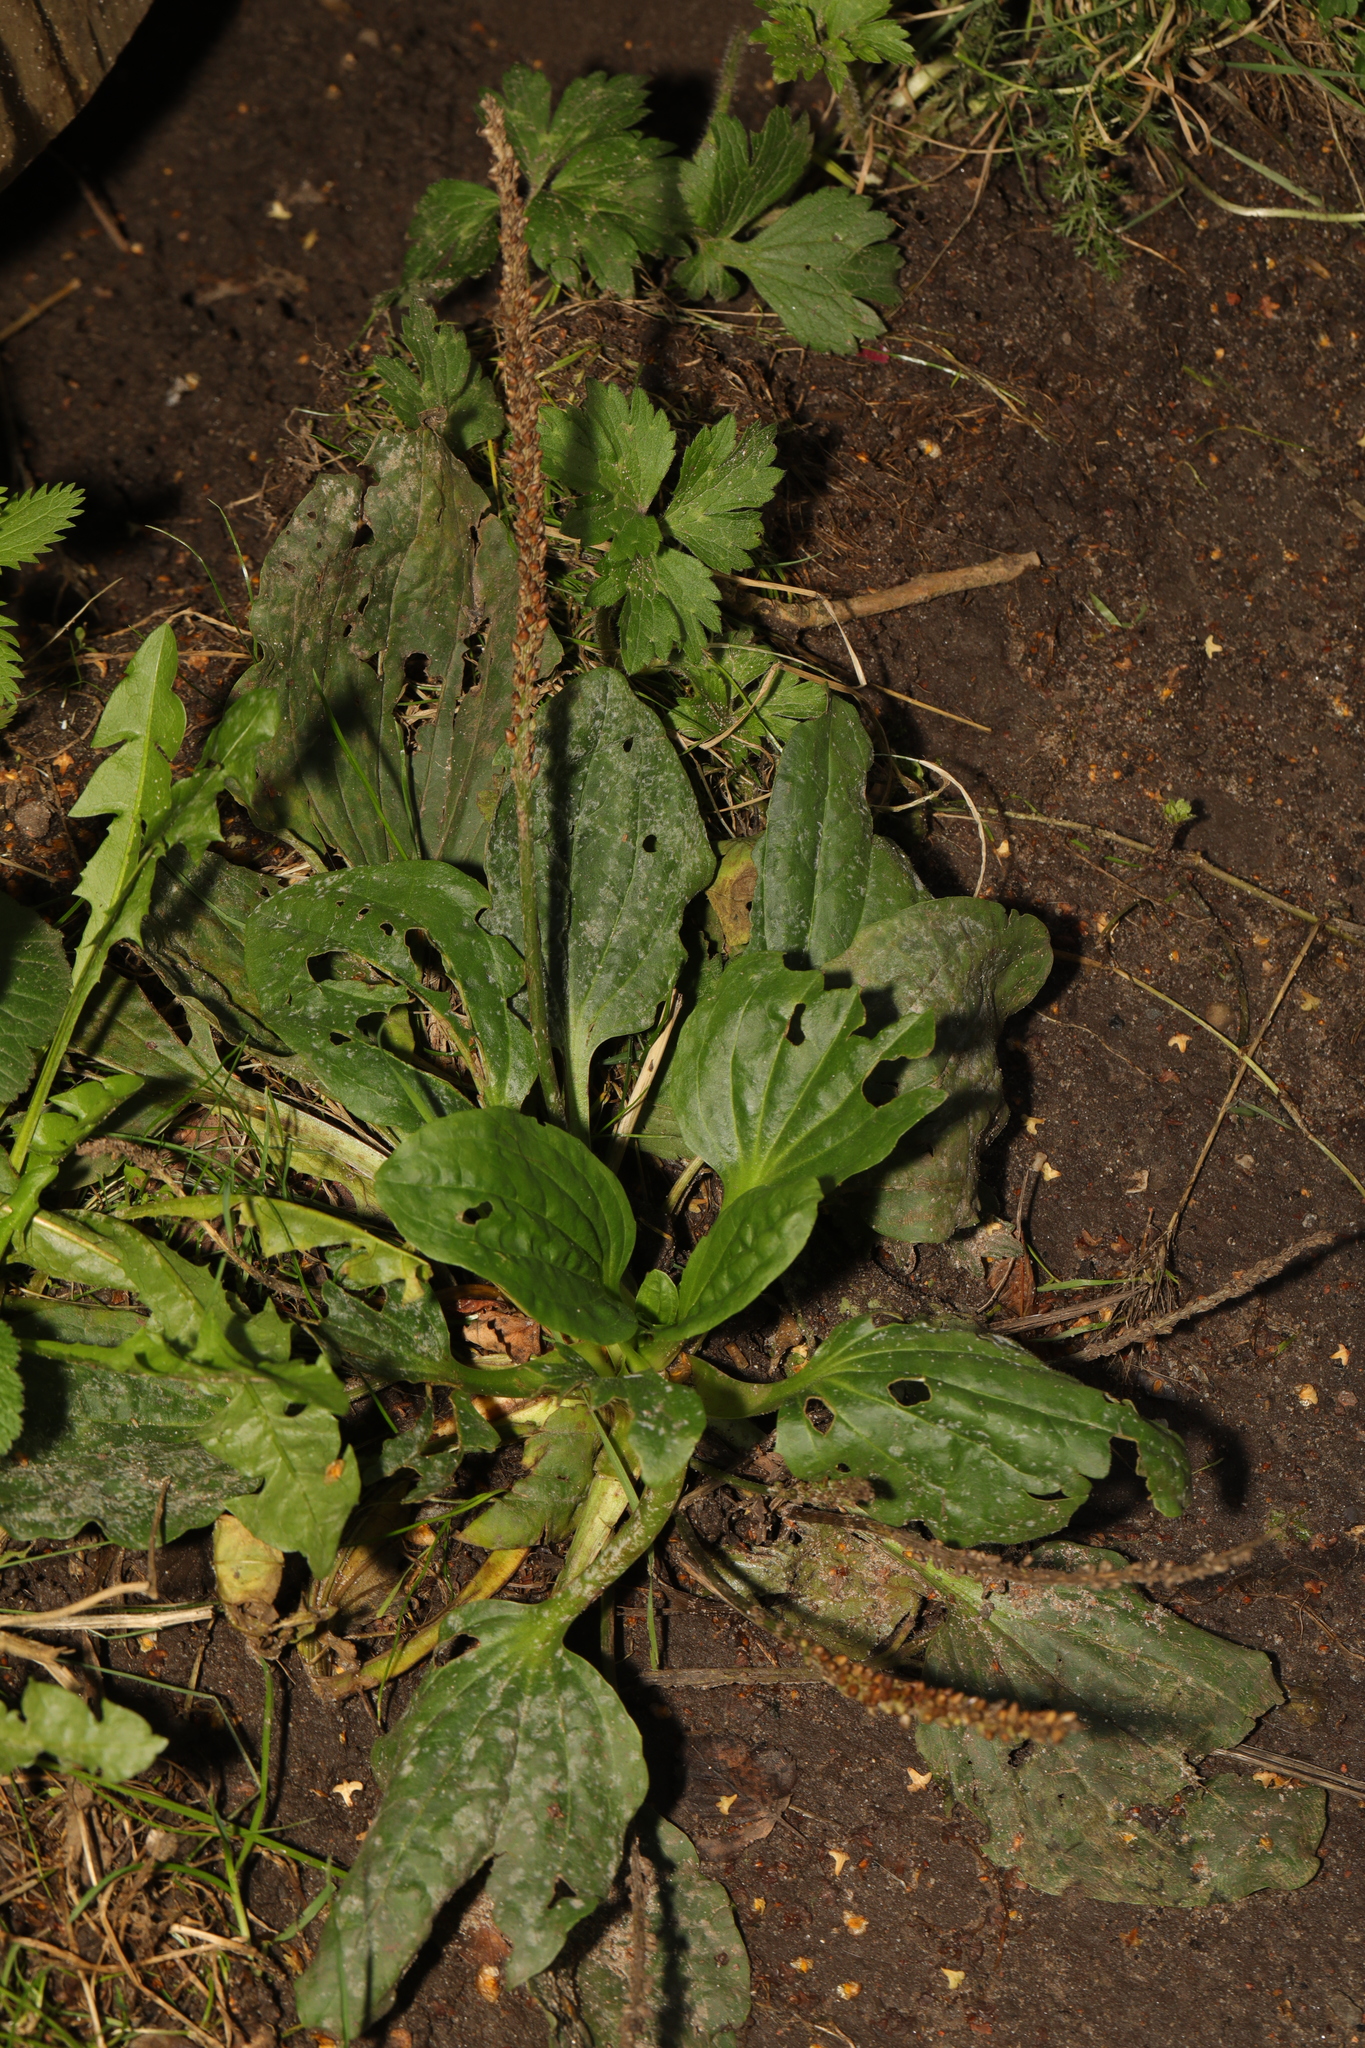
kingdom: Plantae
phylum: Tracheophyta
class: Magnoliopsida
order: Lamiales
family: Plantaginaceae
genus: Plantago
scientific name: Plantago major
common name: Common plantain
